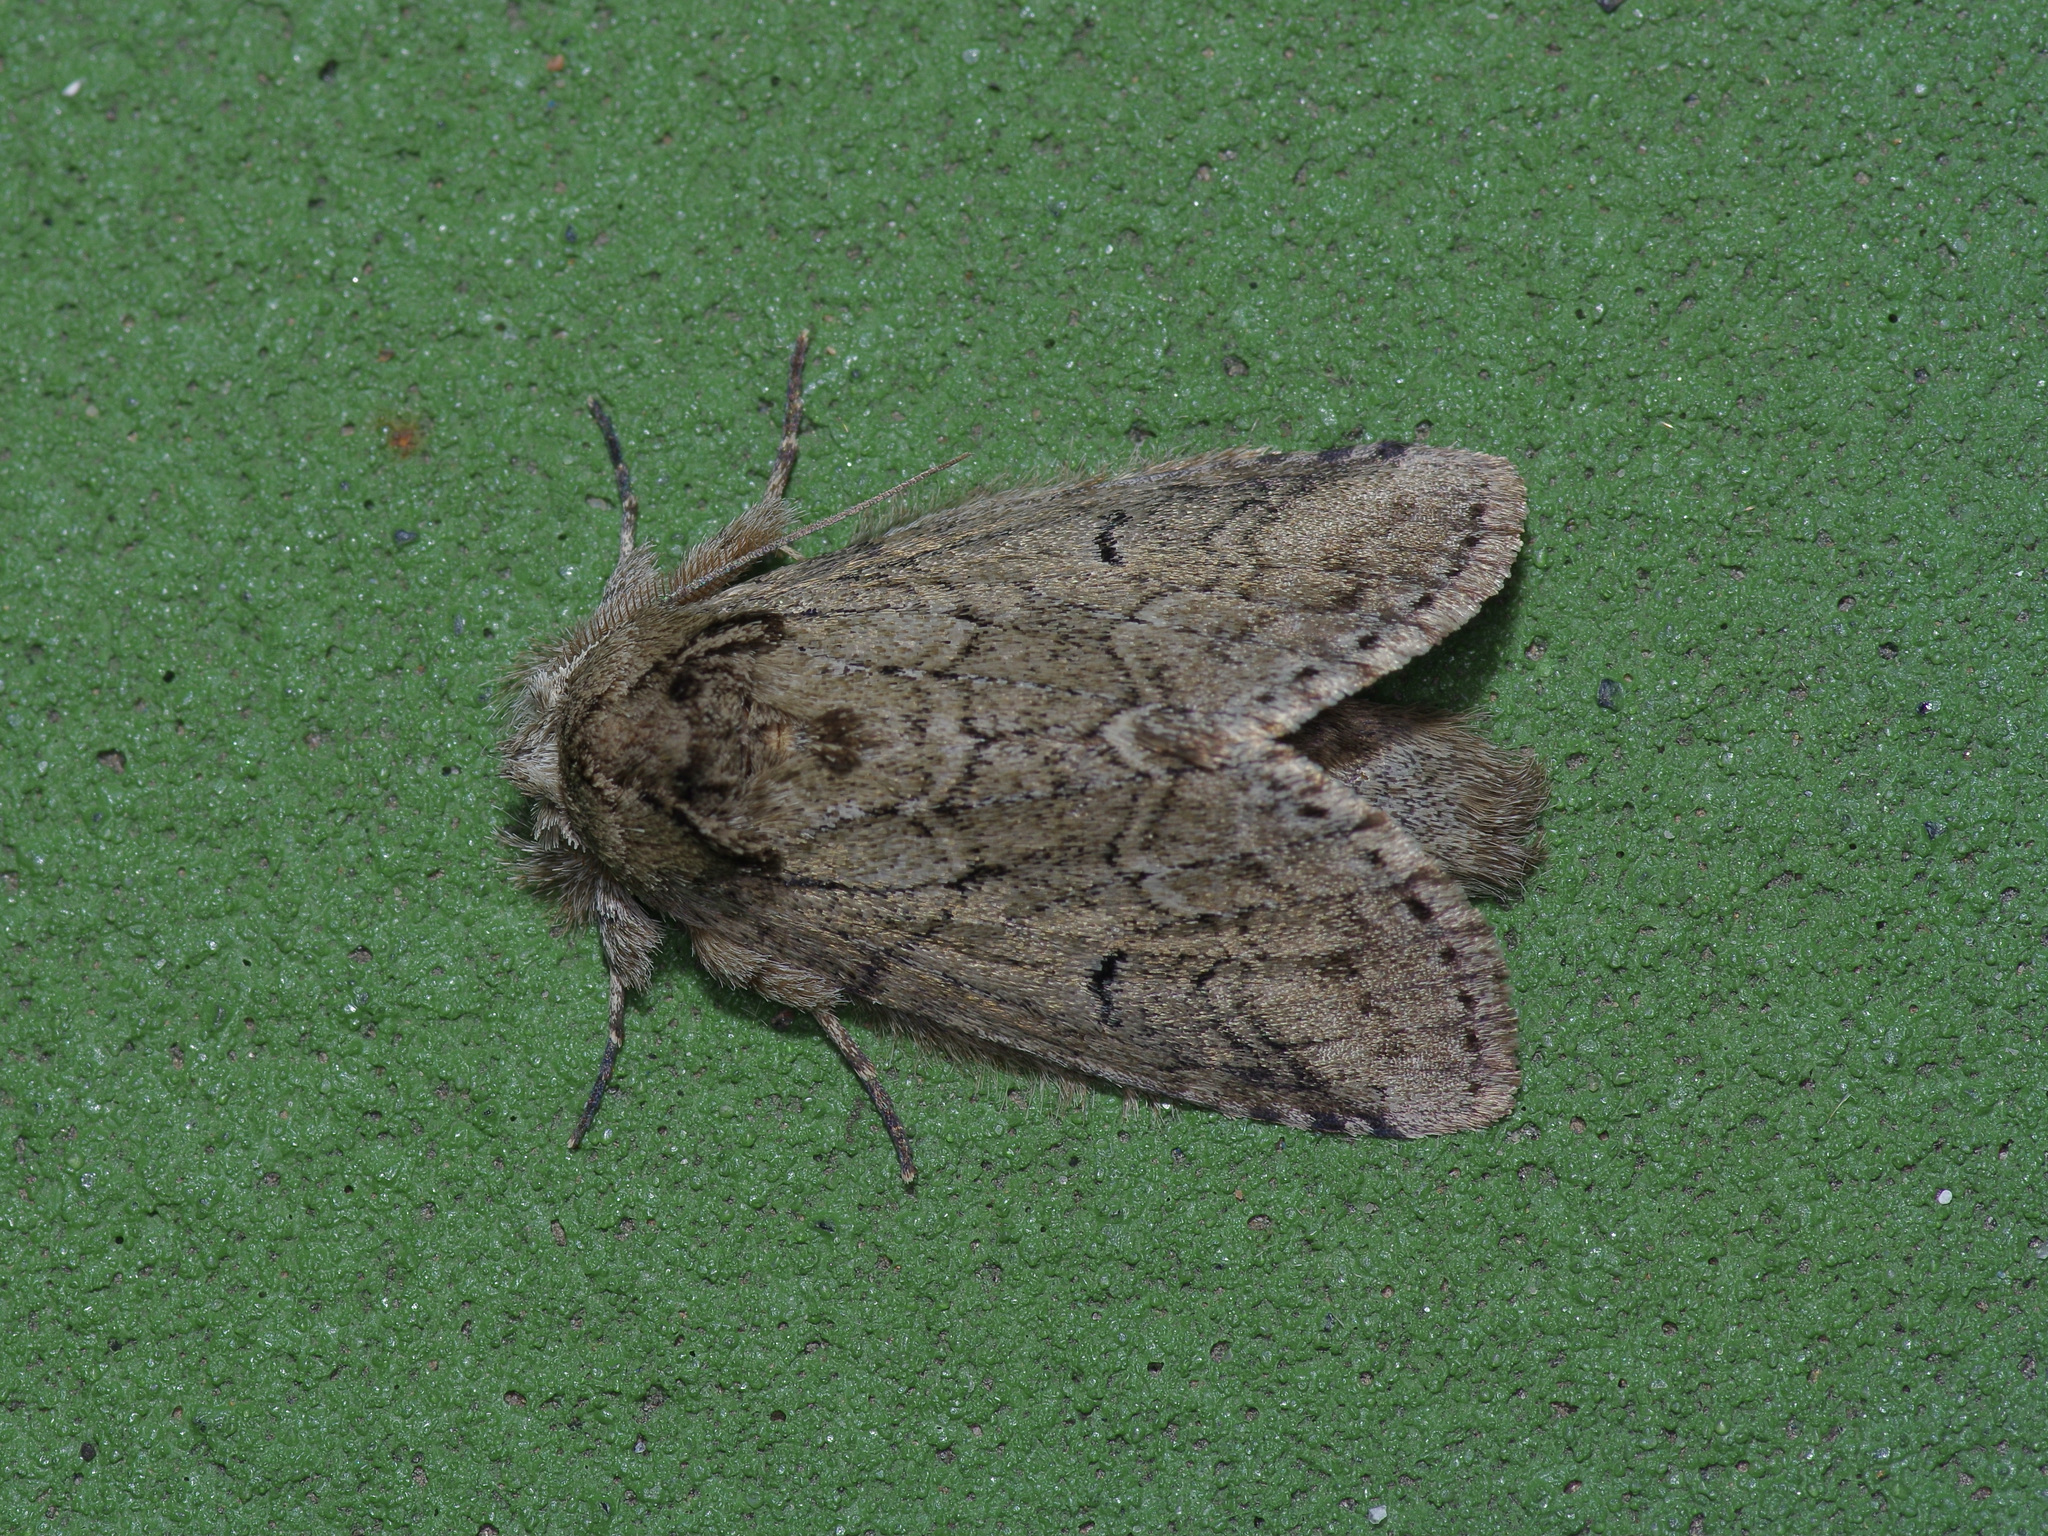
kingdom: Animalia
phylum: Arthropoda
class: Insecta
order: Lepidoptera
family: Notodontidae
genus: Lochmaeus
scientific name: Lochmaeus bilineata
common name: Double-lined prominent
